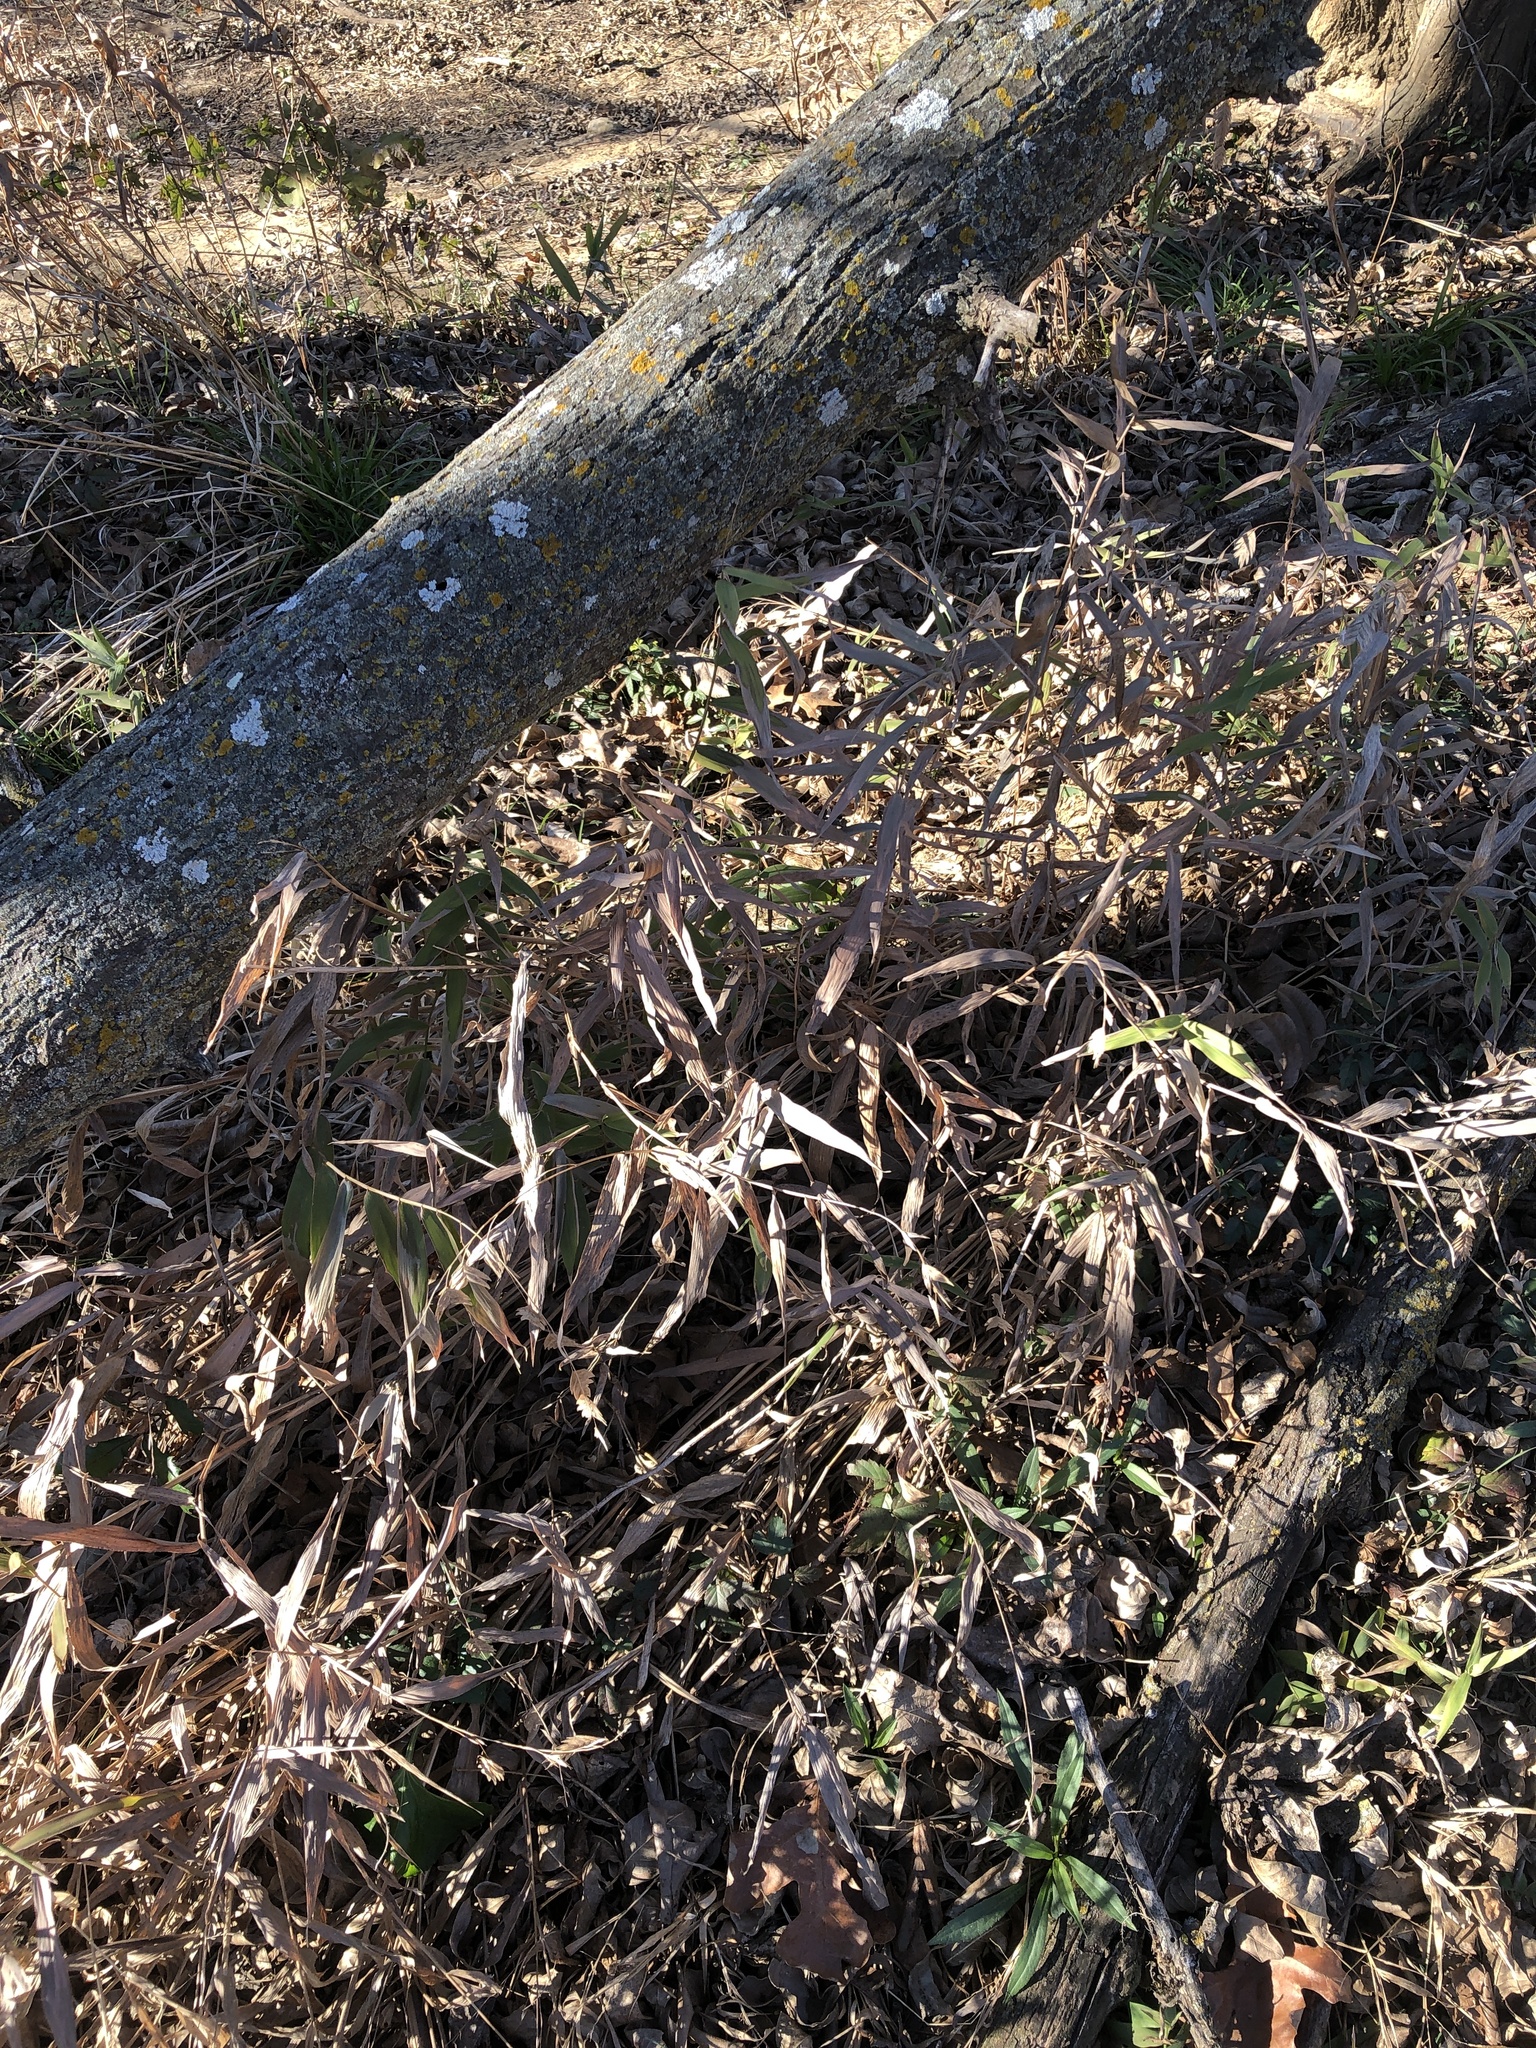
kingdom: Plantae
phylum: Tracheophyta
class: Liliopsida
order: Poales
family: Poaceae
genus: Chasmanthium
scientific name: Chasmanthium latifolium
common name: Broad-leaved chasmanthium
